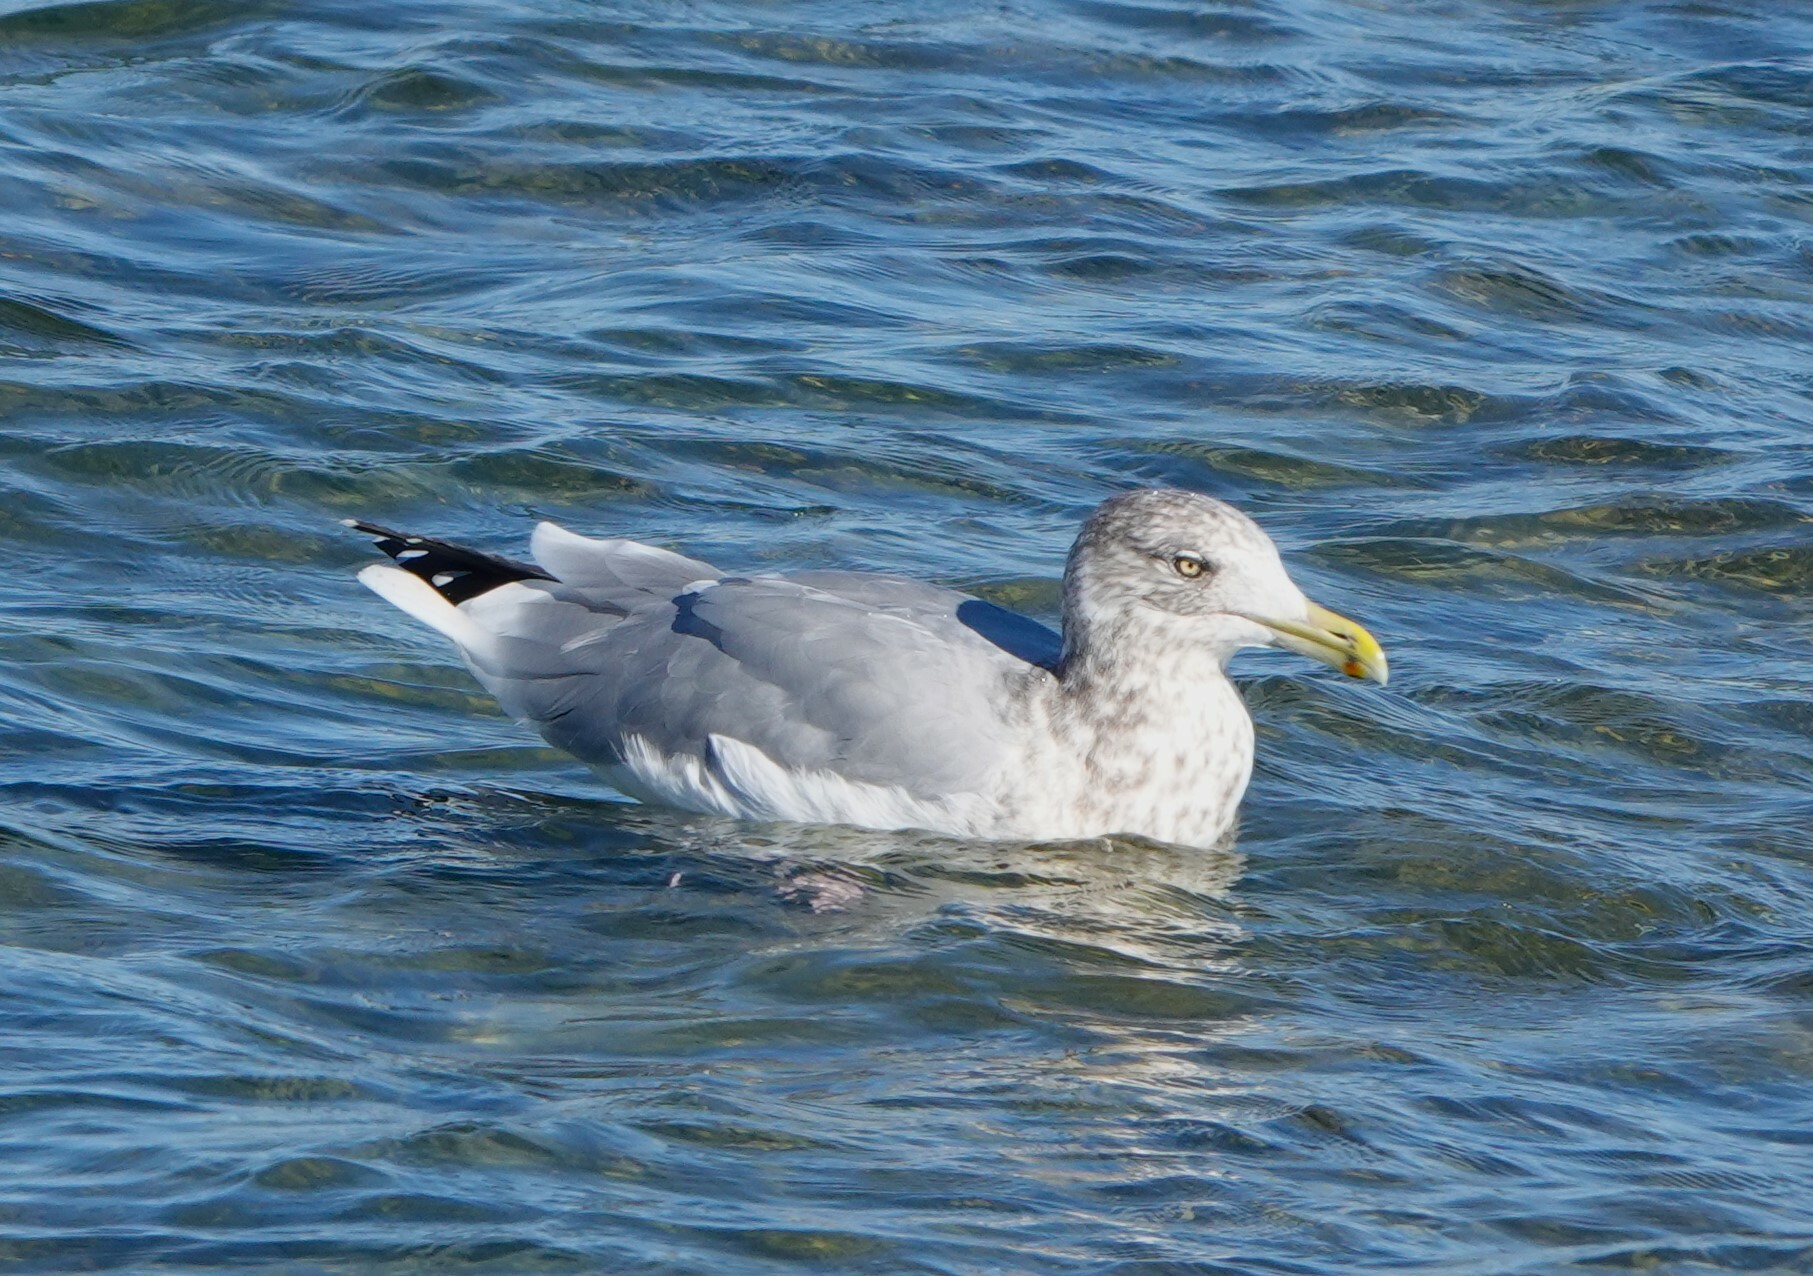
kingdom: Animalia
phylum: Chordata
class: Aves
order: Charadriiformes
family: Laridae
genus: Larus
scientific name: Larus argentatus
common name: Herring gull
